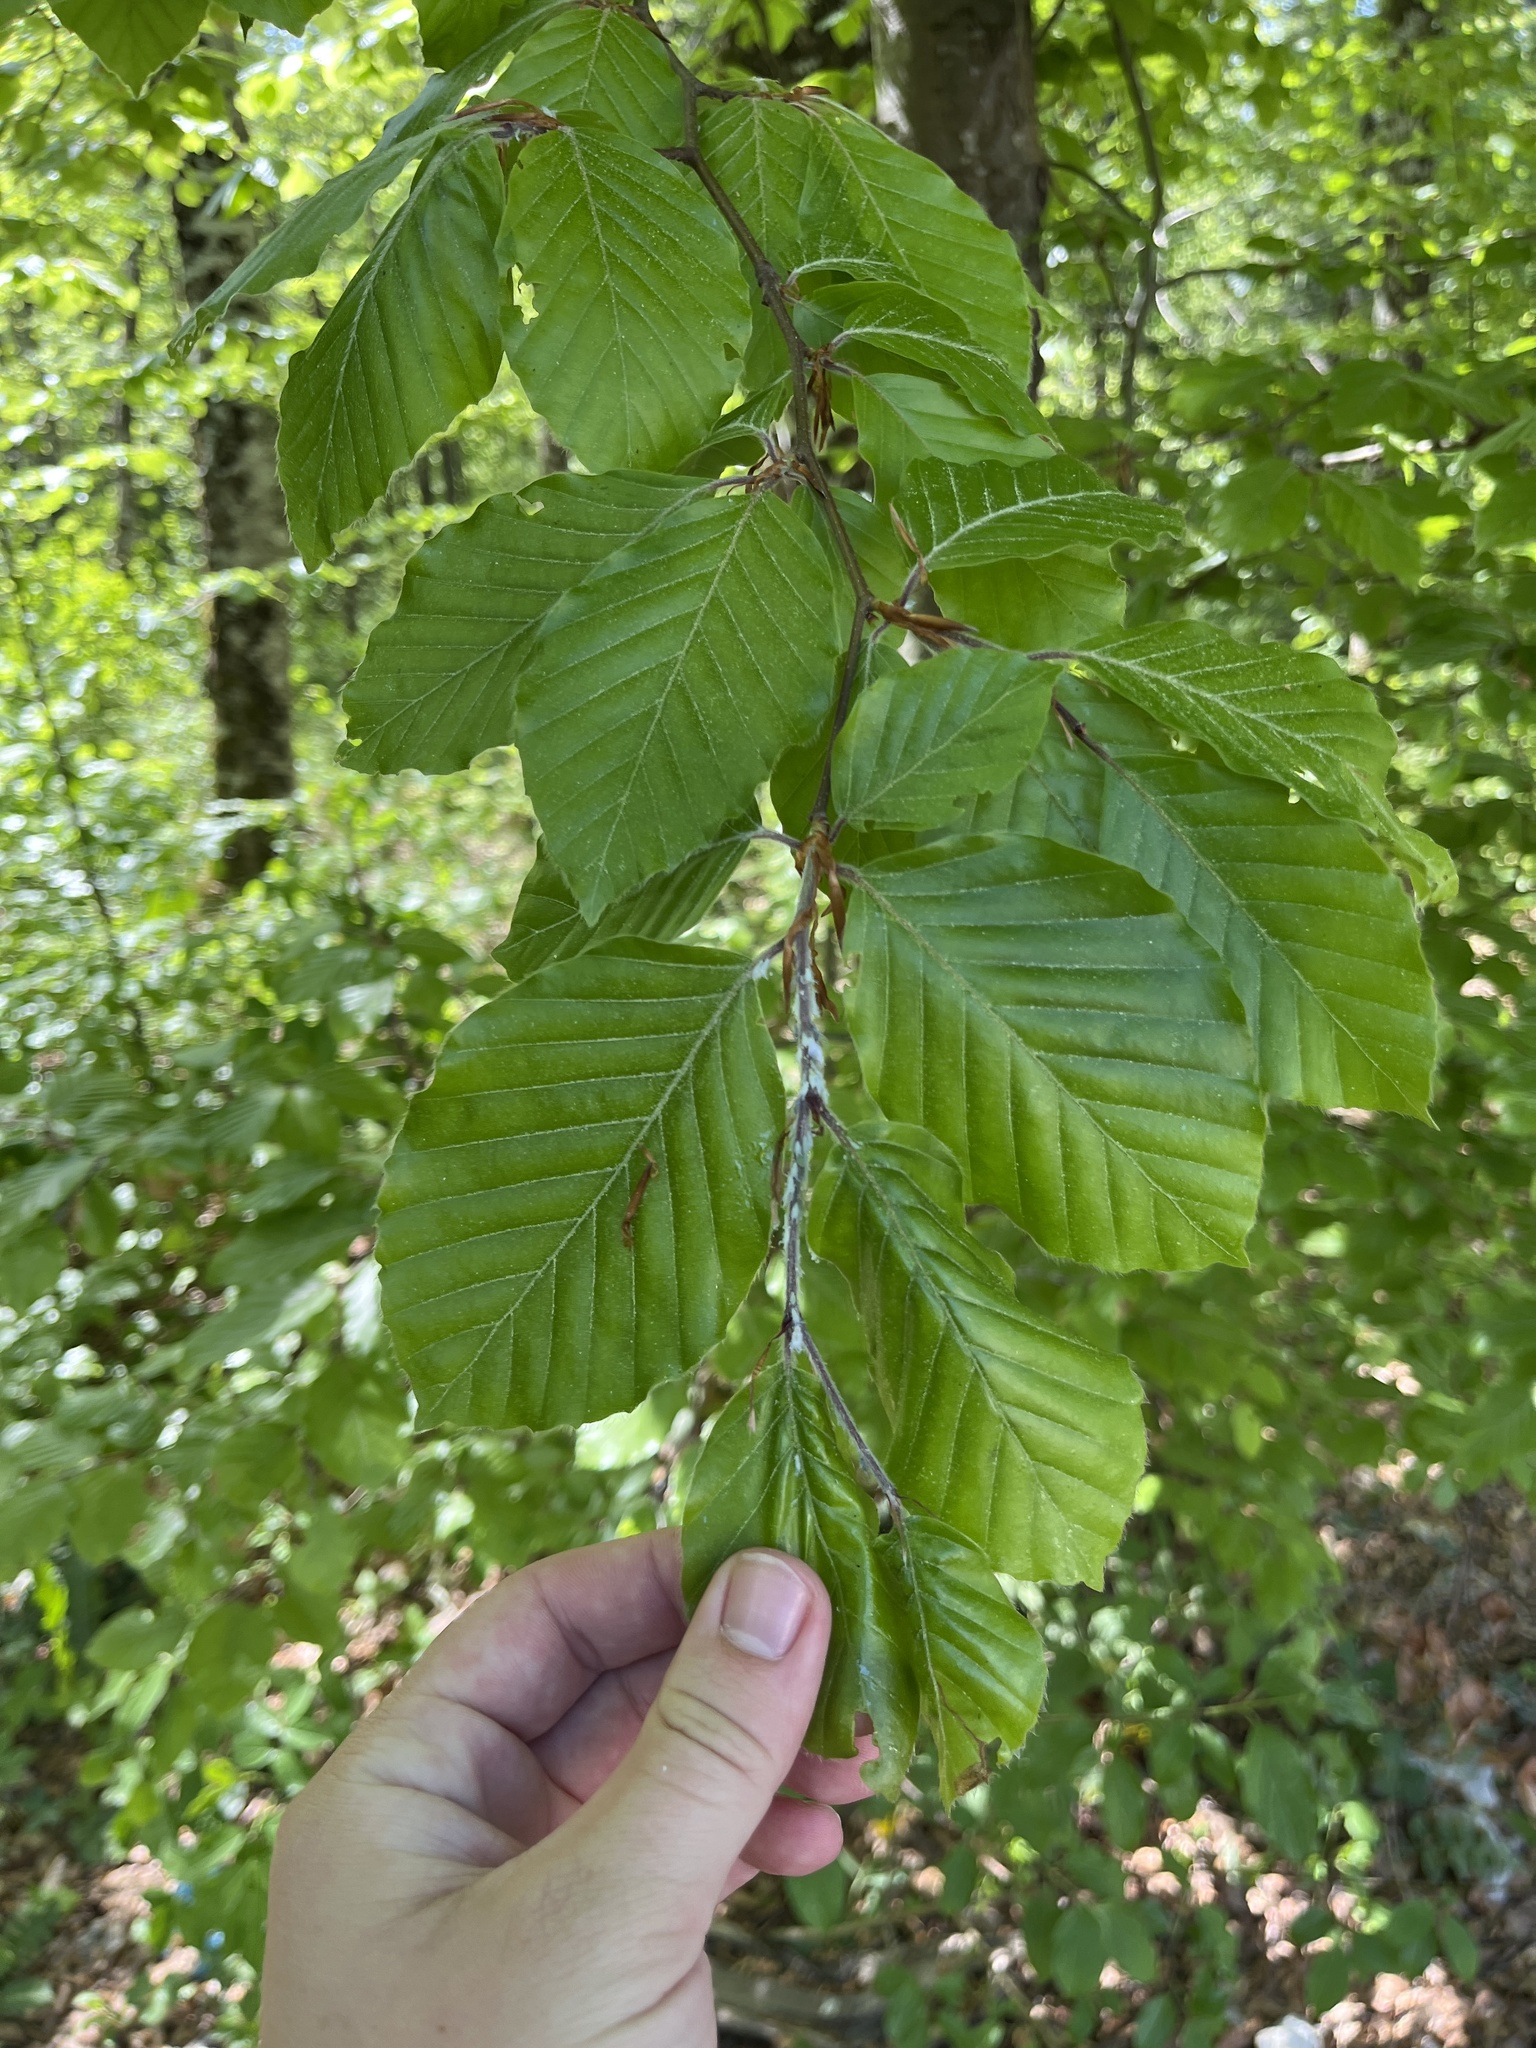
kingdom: Plantae
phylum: Tracheophyta
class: Magnoliopsida
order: Fagales
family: Fagaceae
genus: Fagus
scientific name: Fagus sylvatica
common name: Beech
